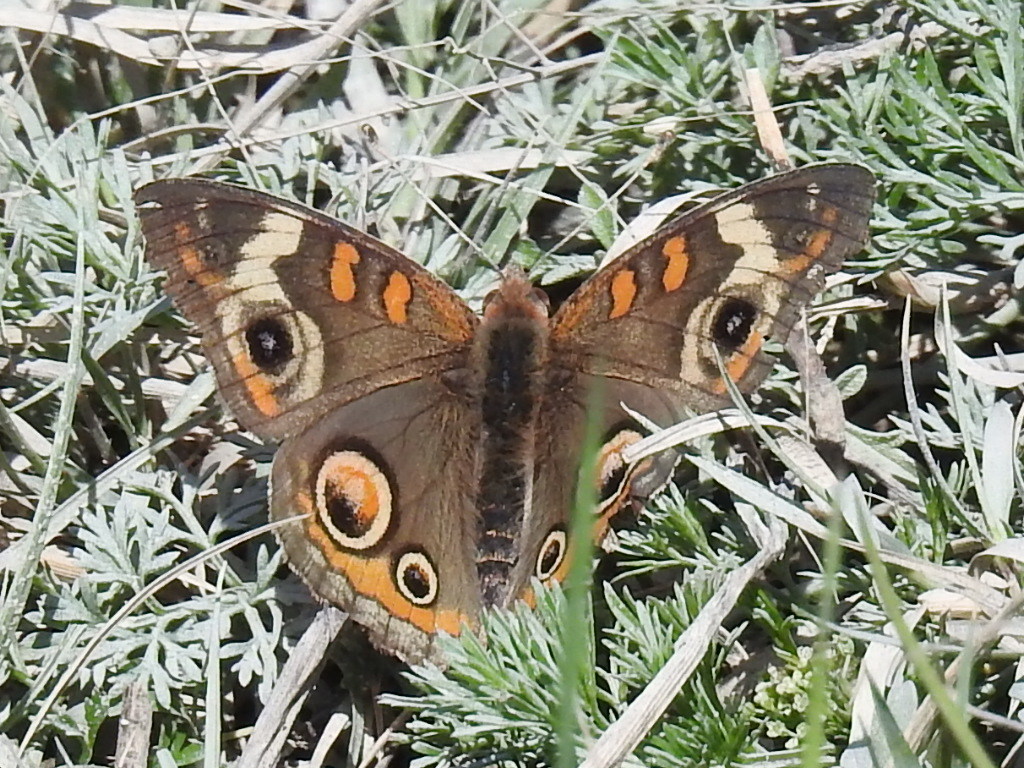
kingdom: Animalia
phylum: Arthropoda
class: Insecta
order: Lepidoptera
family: Nymphalidae
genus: Junonia
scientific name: Junonia coenia
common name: Common buckeye
